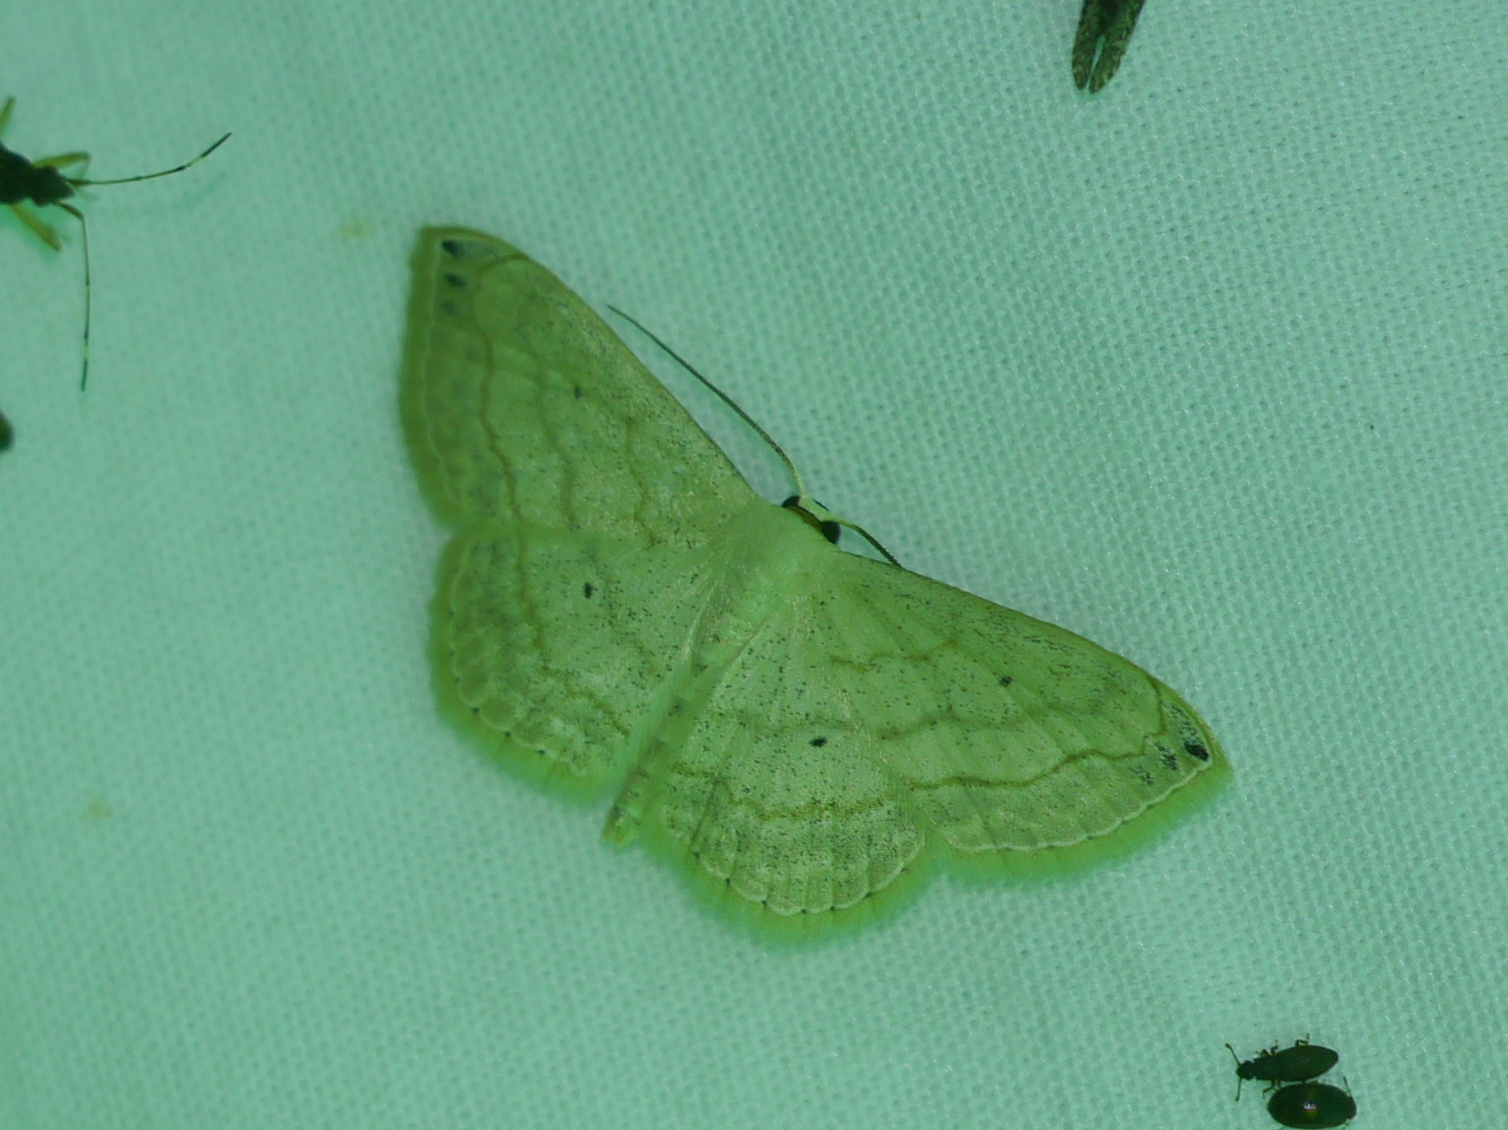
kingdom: Animalia
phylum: Arthropoda
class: Insecta
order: Lepidoptera
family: Geometridae
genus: Scopula
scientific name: Scopula umbilicata
